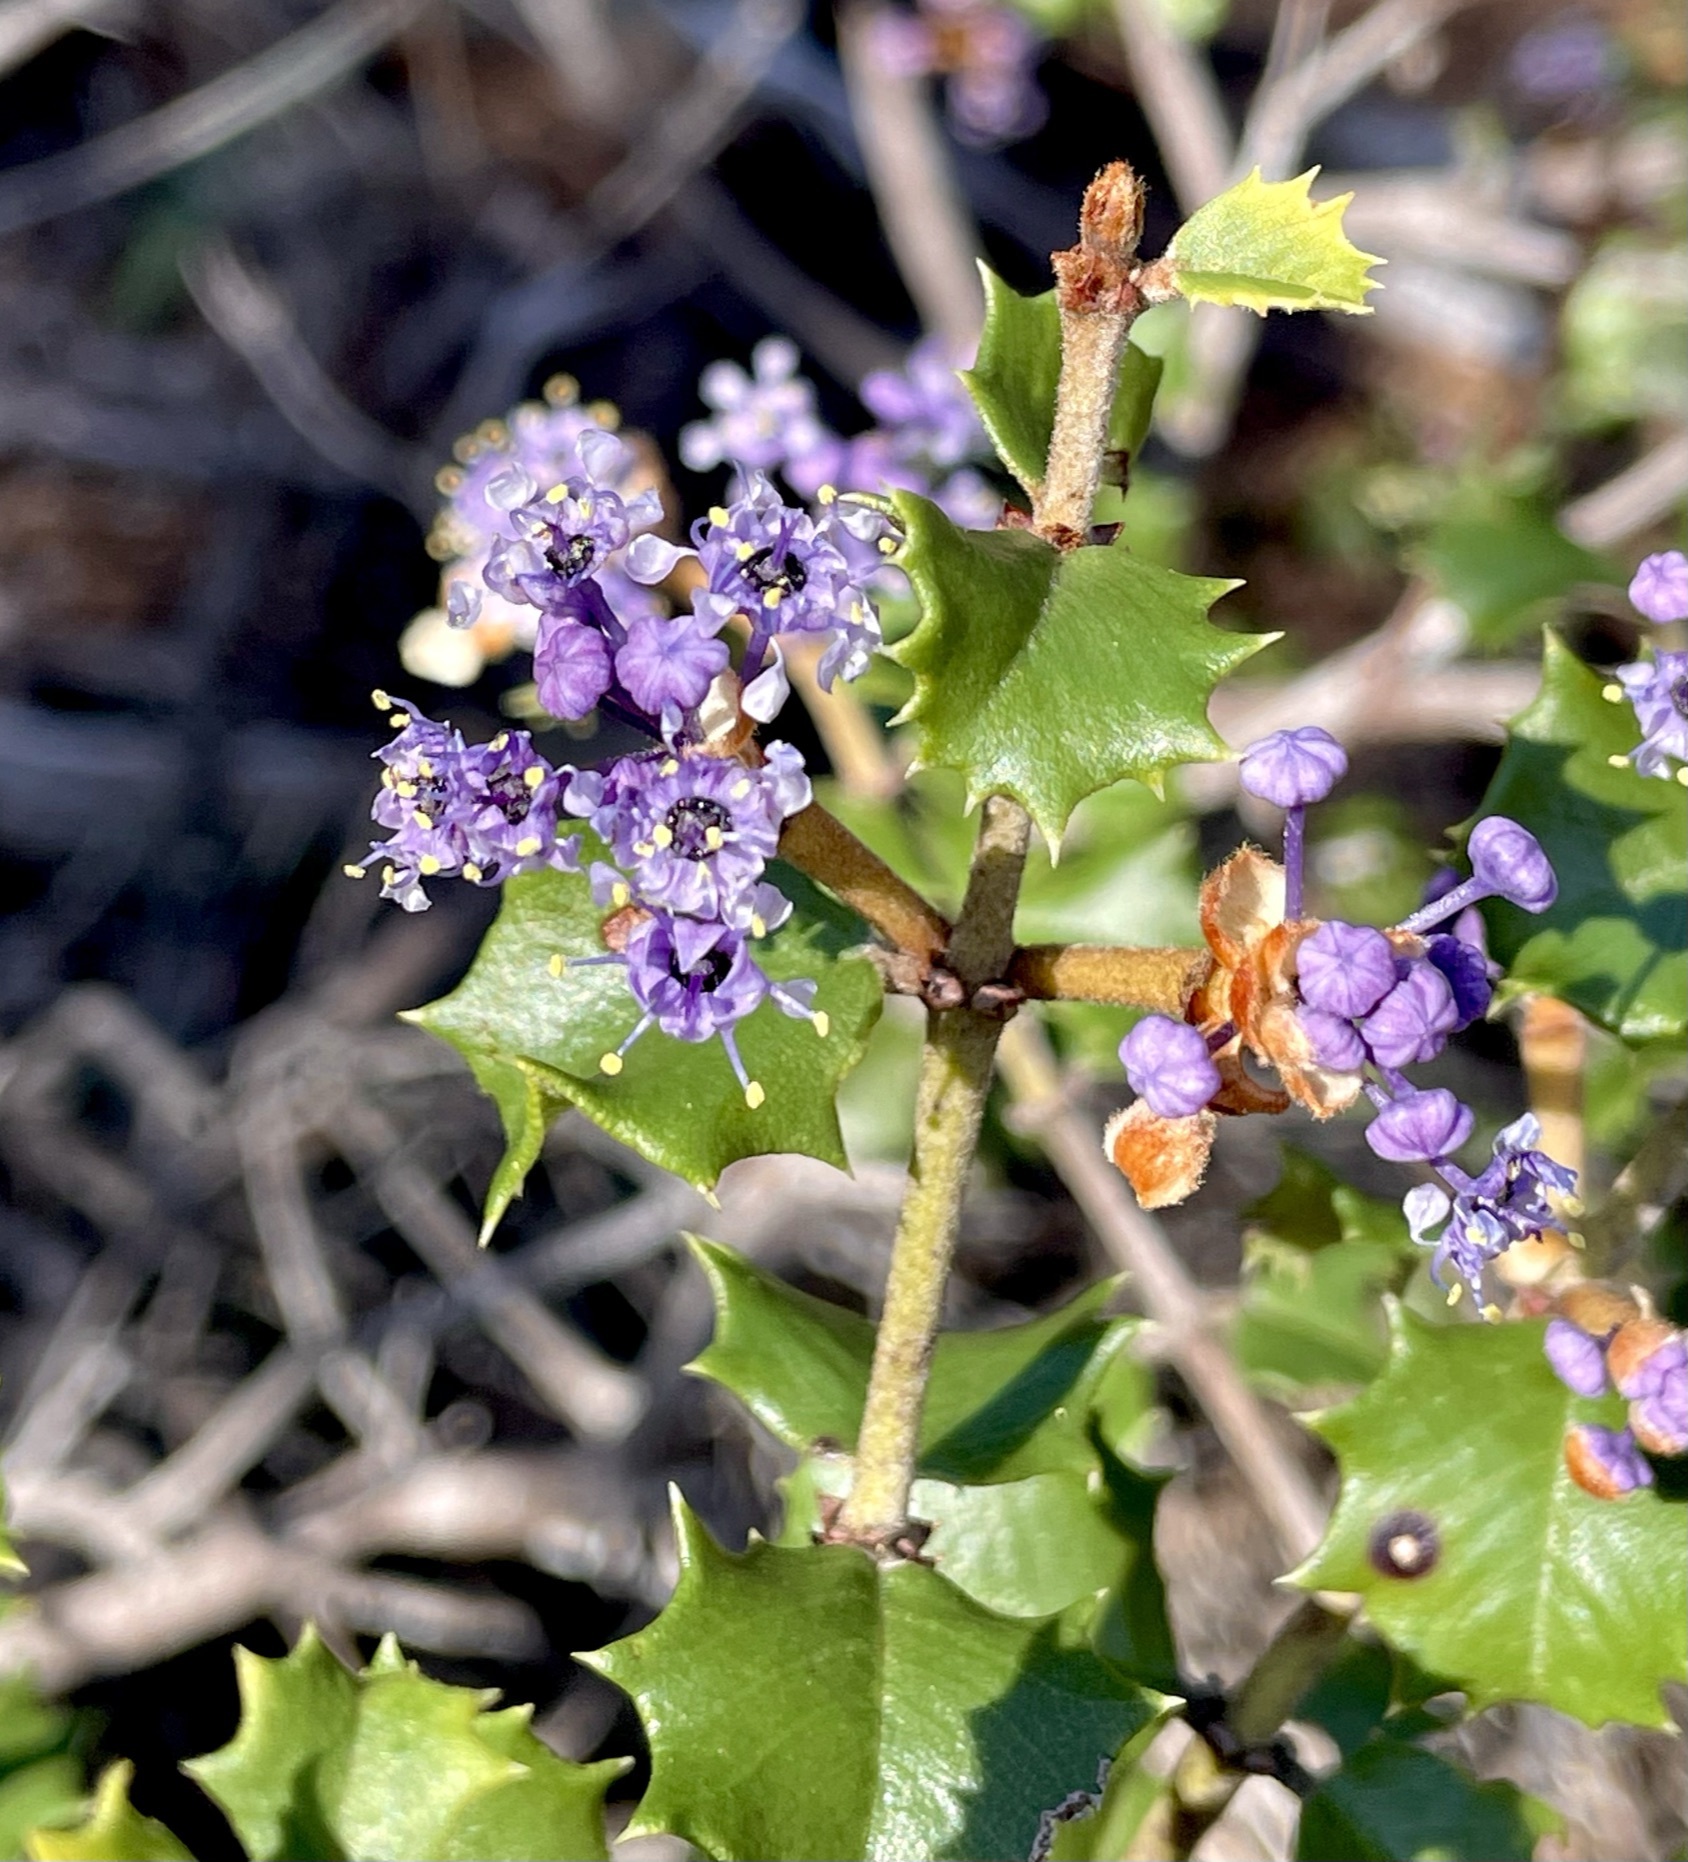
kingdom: Plantae
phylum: Tracheophyta
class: Magnoliopsida
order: Rosales
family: Rhamnaceae
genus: Ceanothus
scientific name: Ceanothus jepsonii
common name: Muskbrush
